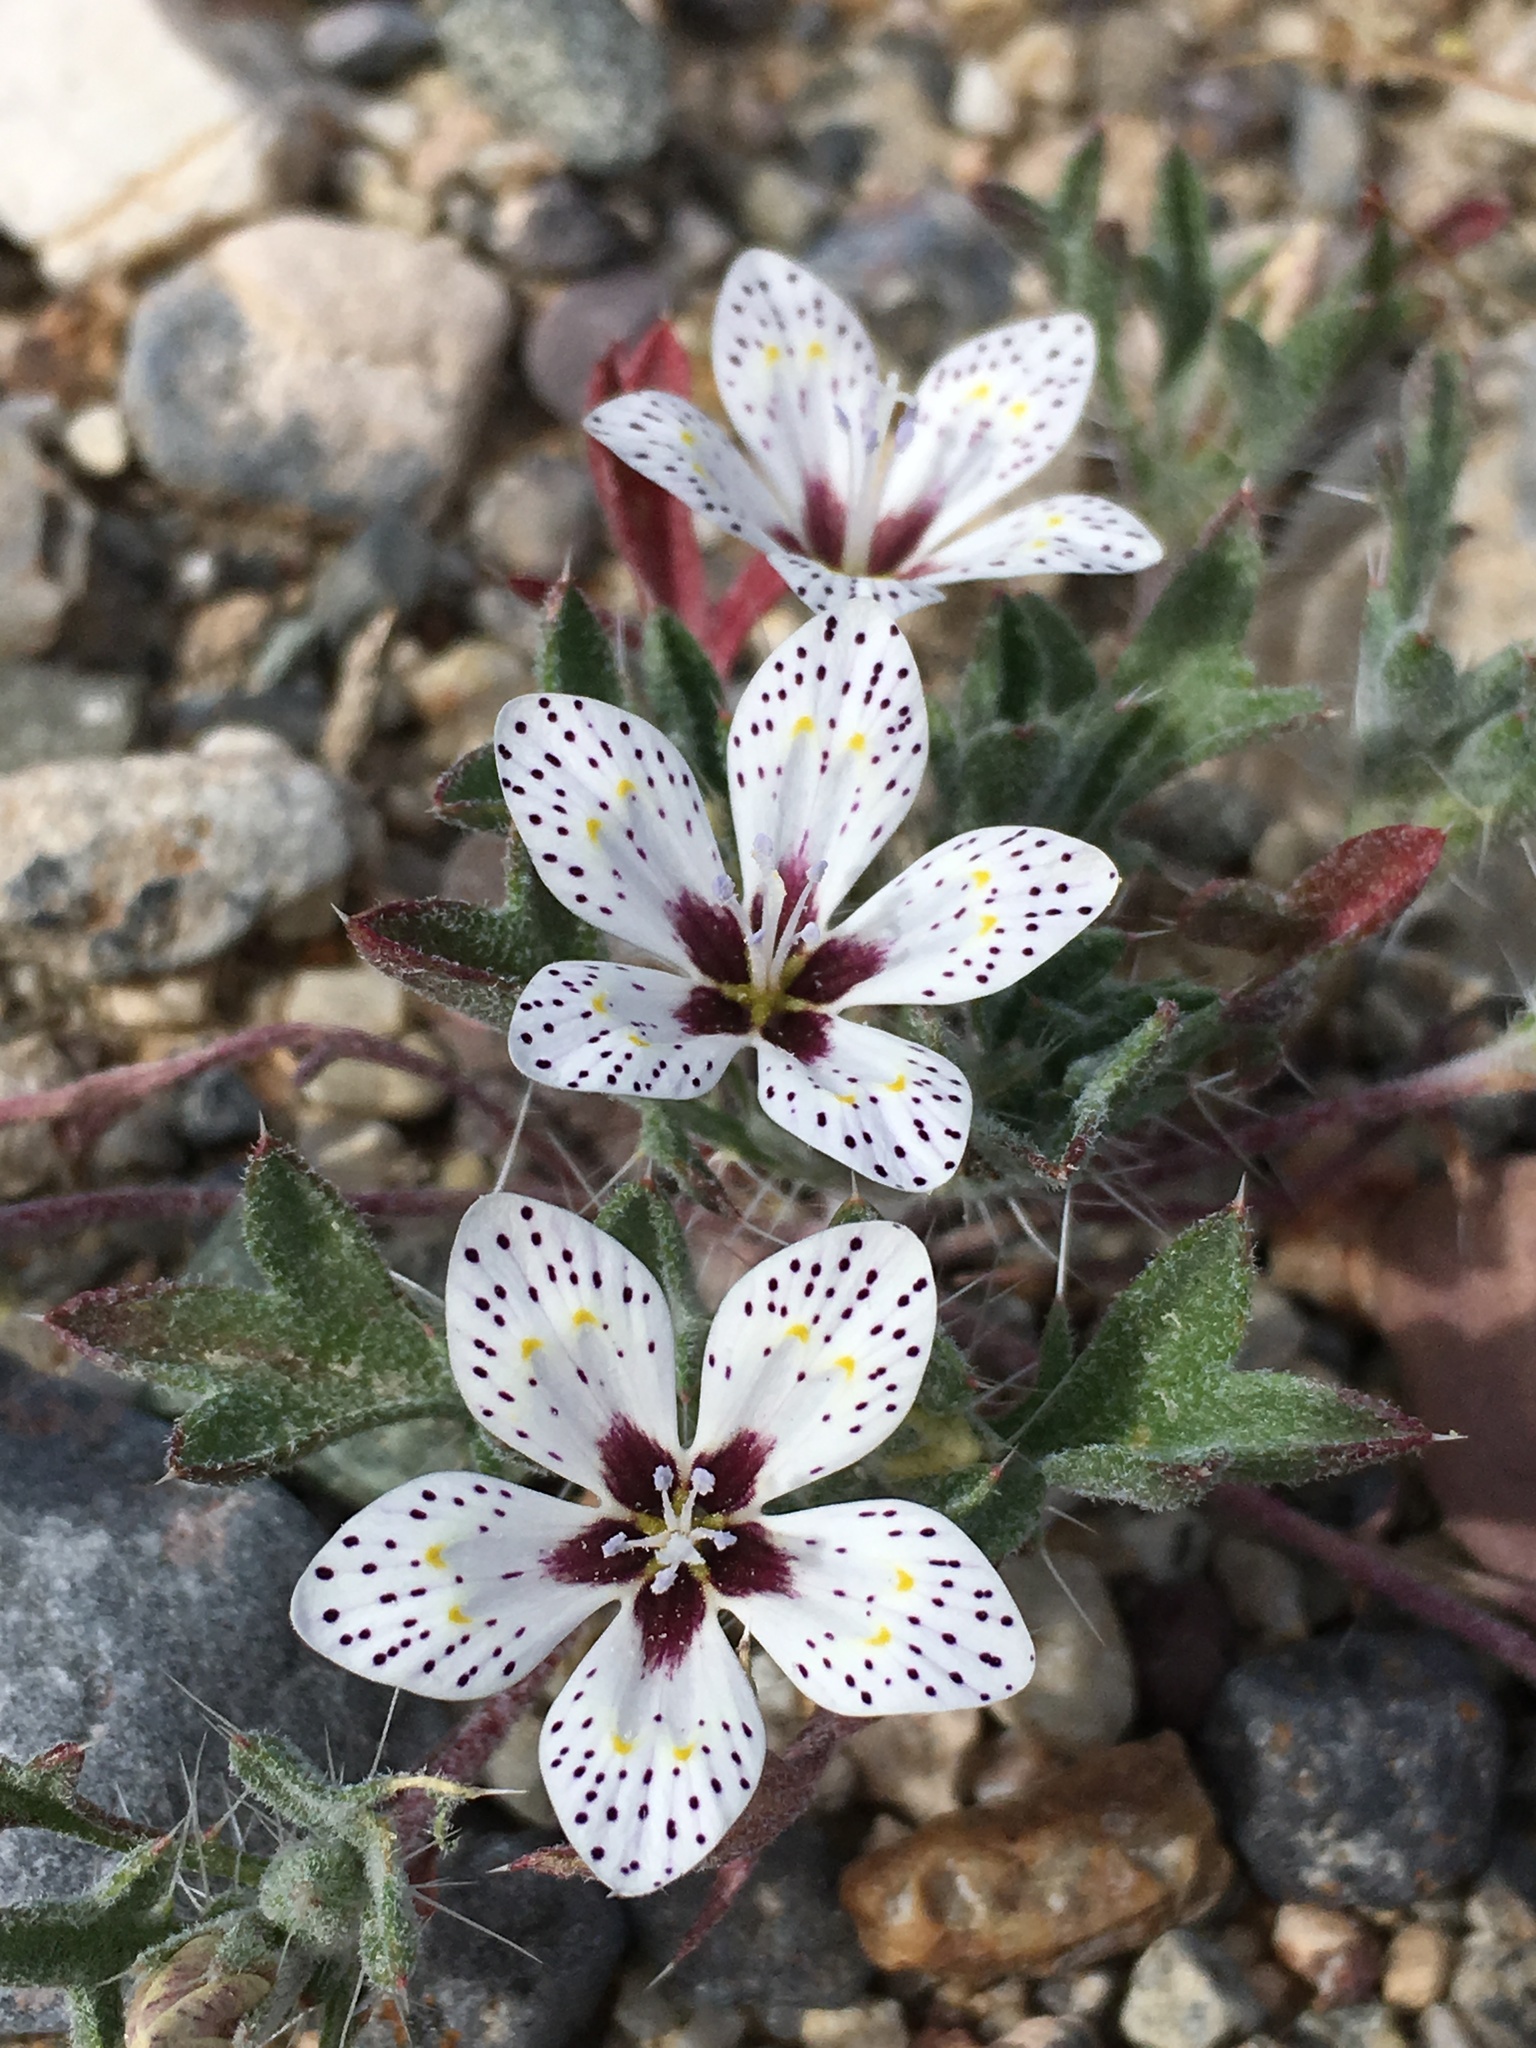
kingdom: Plantae
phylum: Tracheophyta
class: Magnoliopsida
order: Ericales
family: Polemoniaceae
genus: Langloisia
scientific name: Langloisia setosissima
